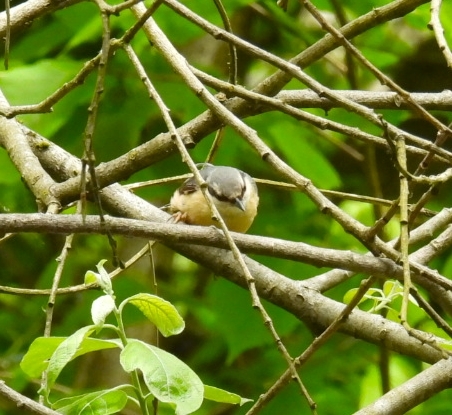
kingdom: Animalia
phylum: Chordata
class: Aves
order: Passeriformes
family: Sittidae
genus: Sitta
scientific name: Sitta europaea
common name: Eurasian nuthatch
